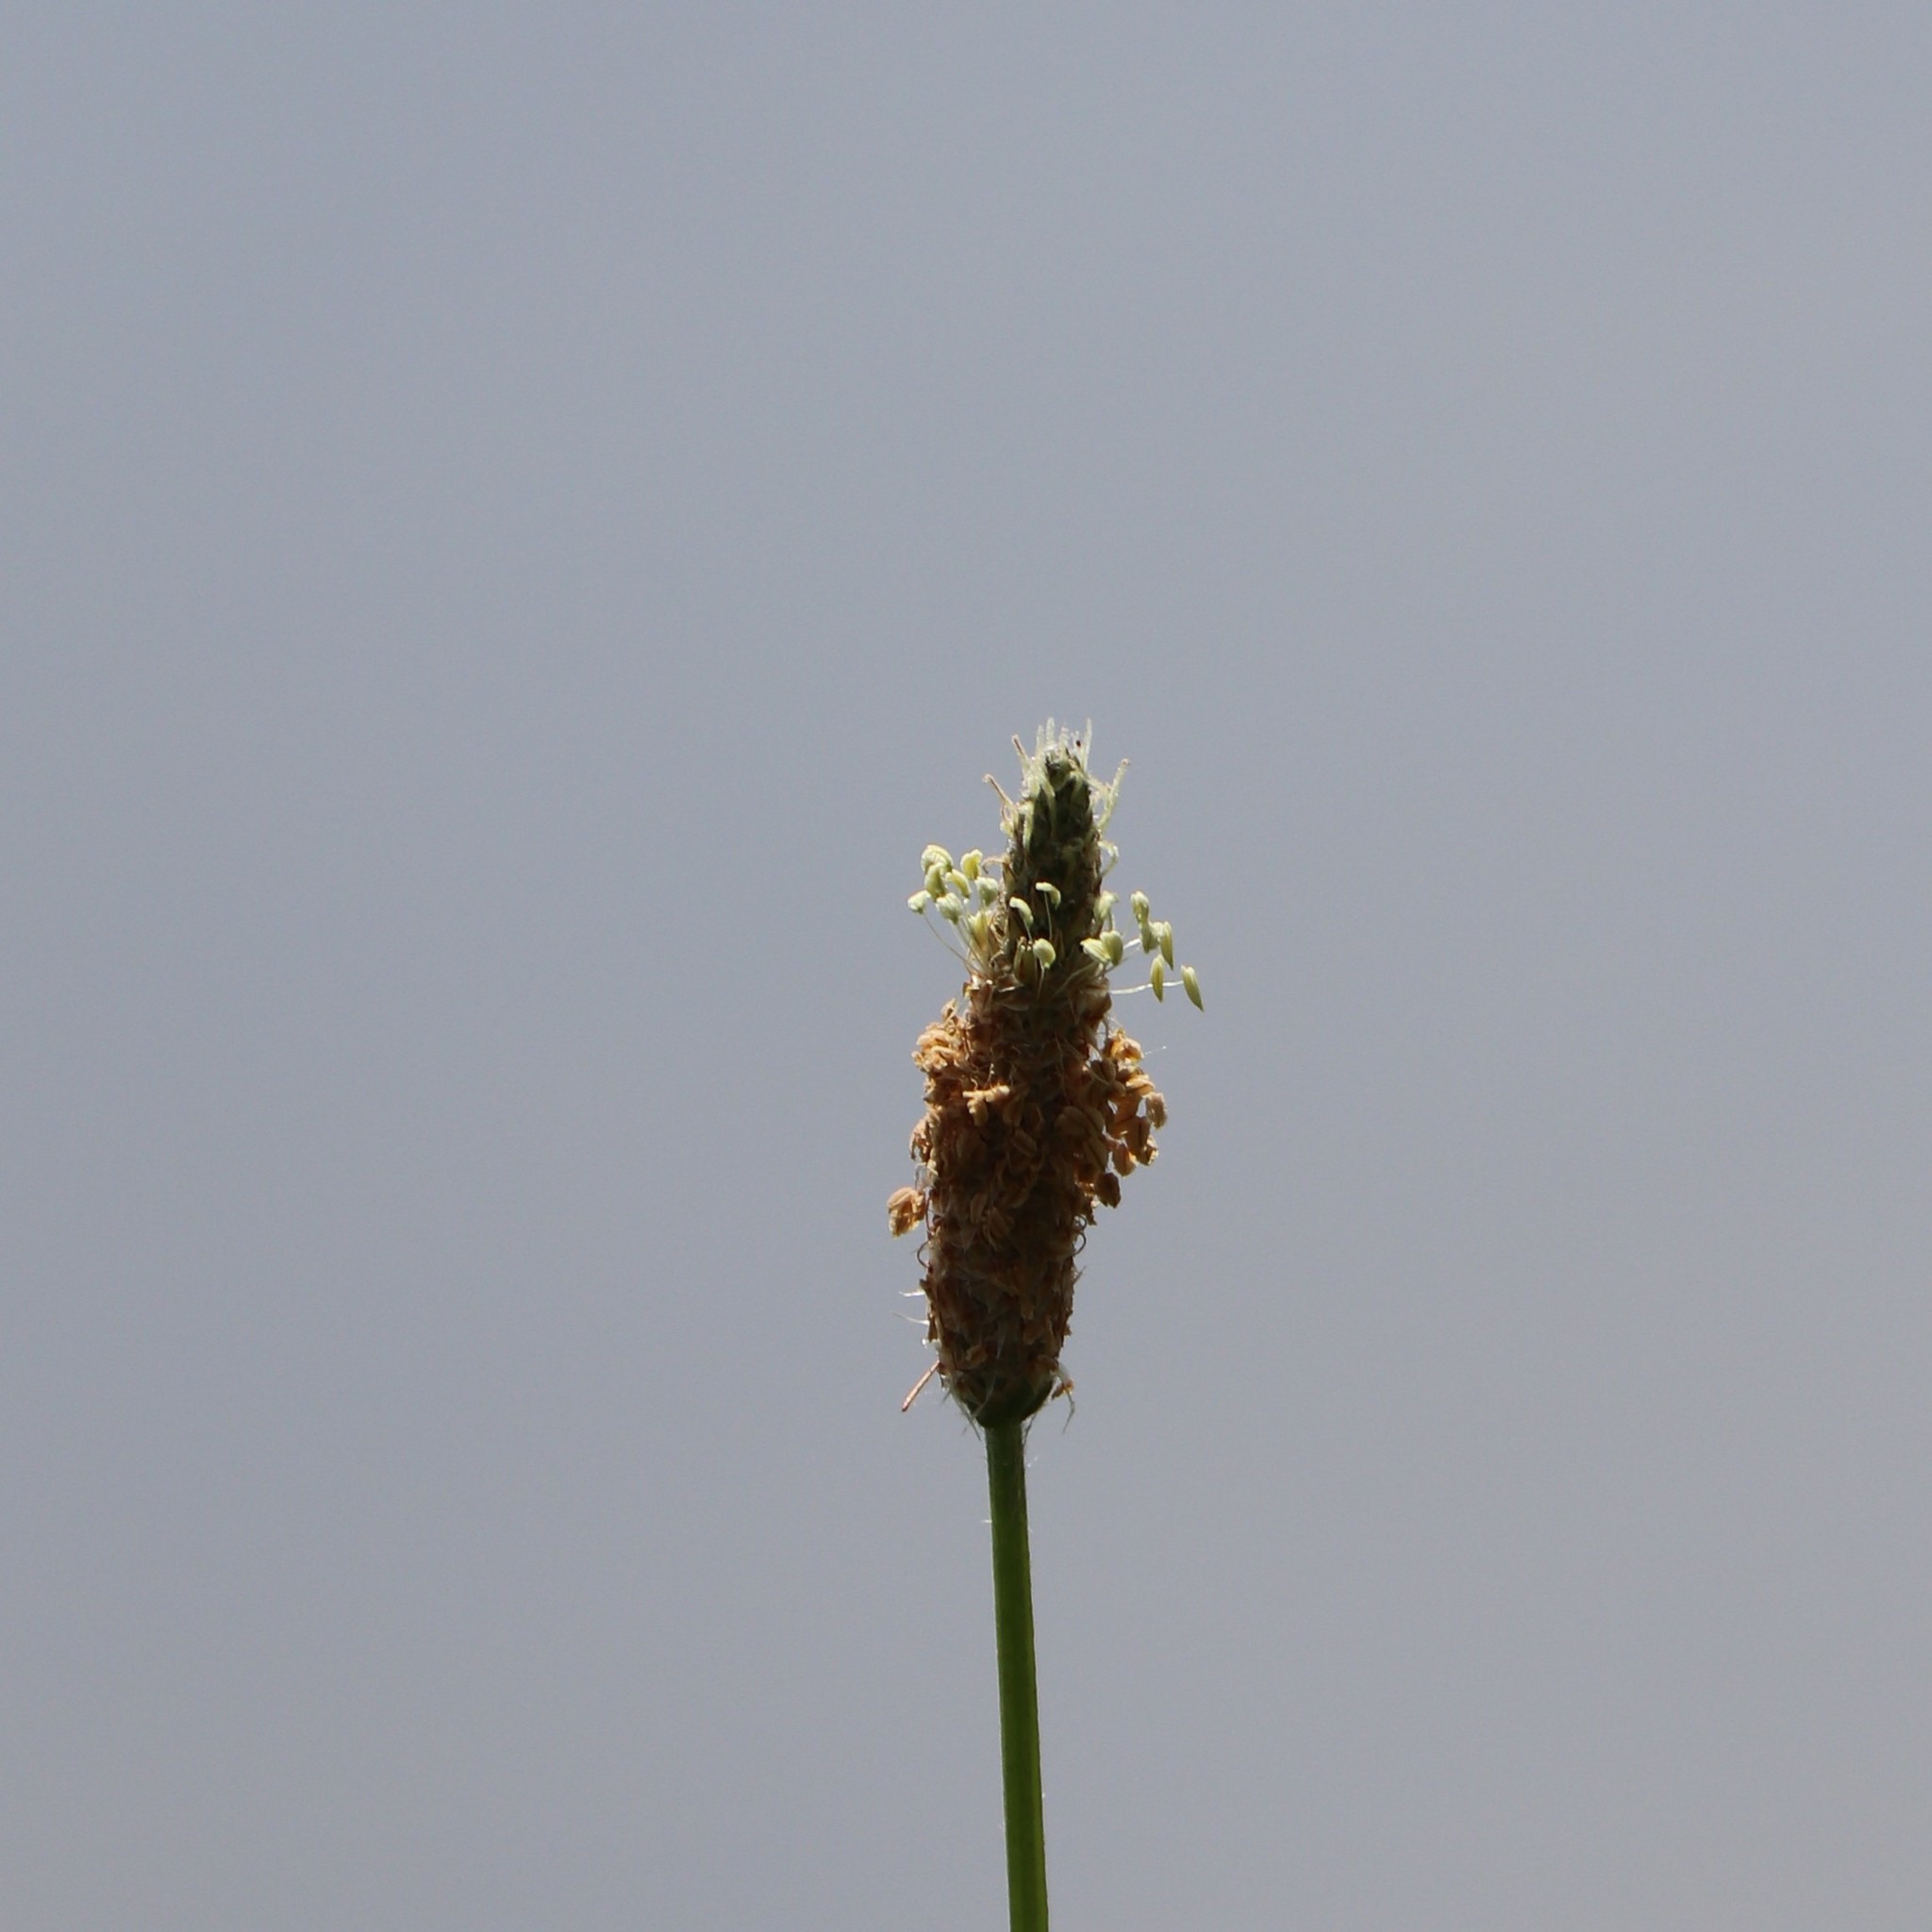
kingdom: Plantae
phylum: Tracheophyta
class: Magnoliopsida
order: Lamiales
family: Plantaginaceae
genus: Plantago
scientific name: Plantago lanceolata
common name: Ribwort plantain
